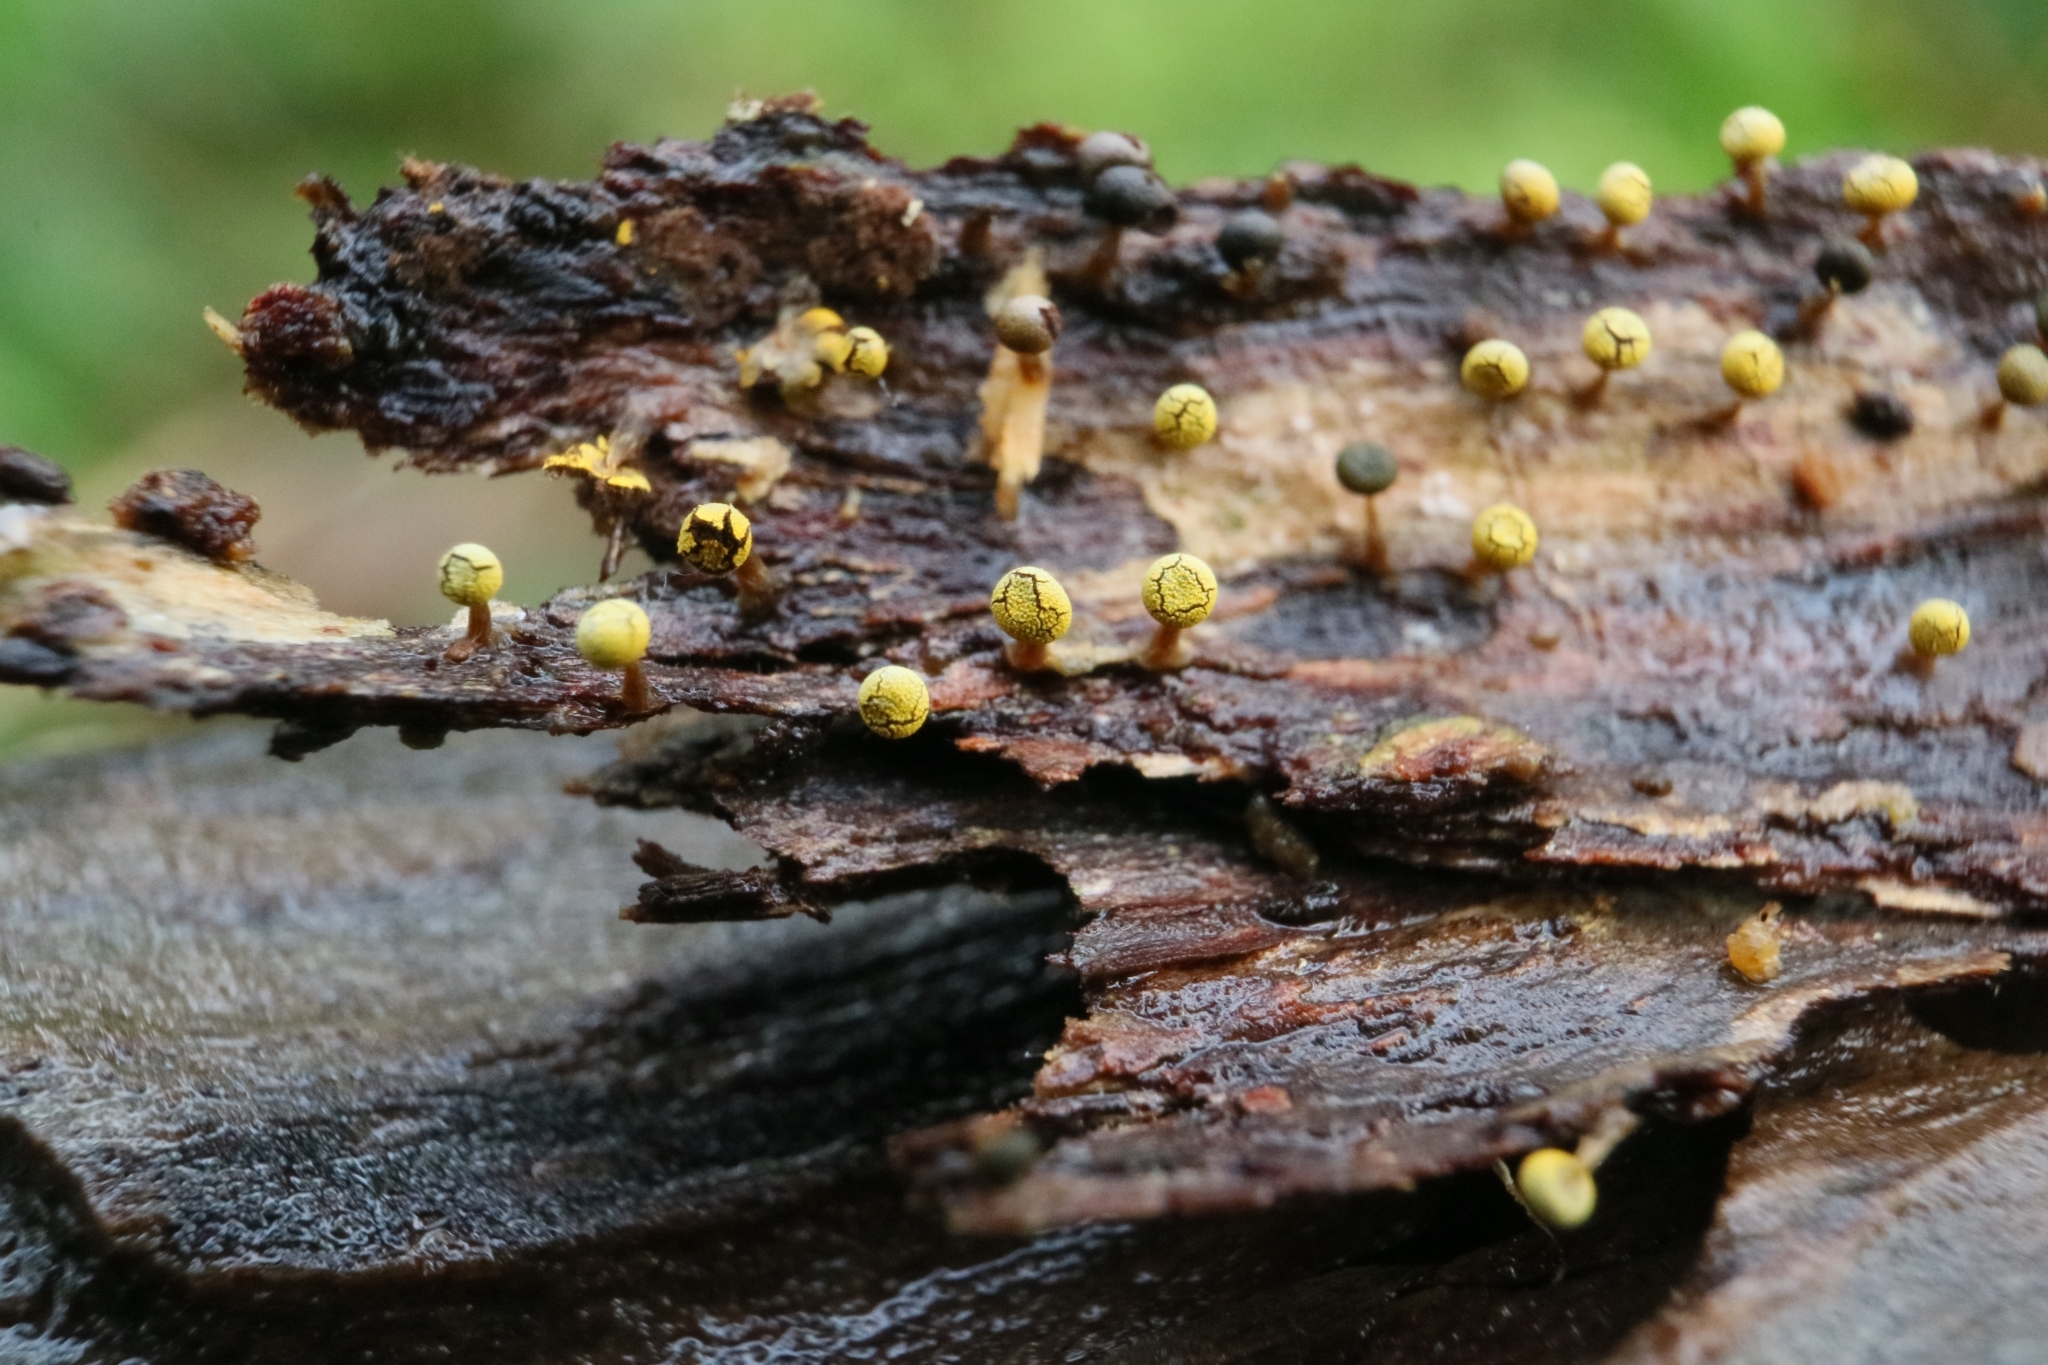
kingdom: Protozoa
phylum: Mycetozoa
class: Myxomycetes
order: Physarales
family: Physaraceae
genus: Physarum
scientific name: Physarum viride
